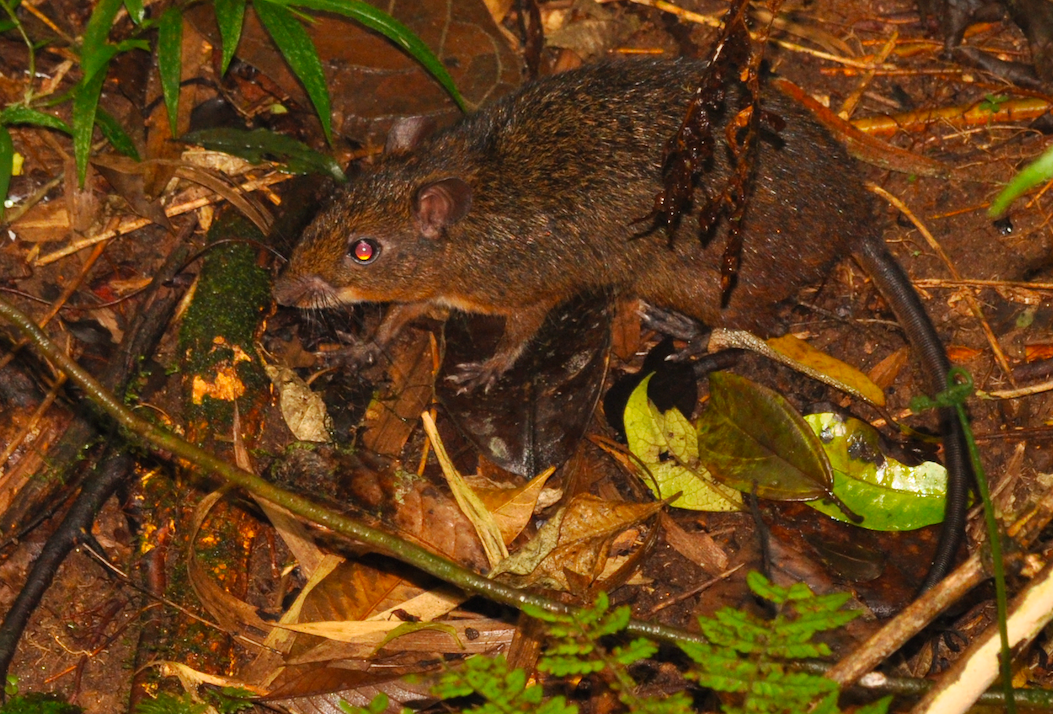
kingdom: Animalia
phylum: Chordata
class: Mammalia
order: Rodentia
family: Nesomyidae
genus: Nesomys
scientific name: Nesomys rufus
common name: Rufous nesomys
